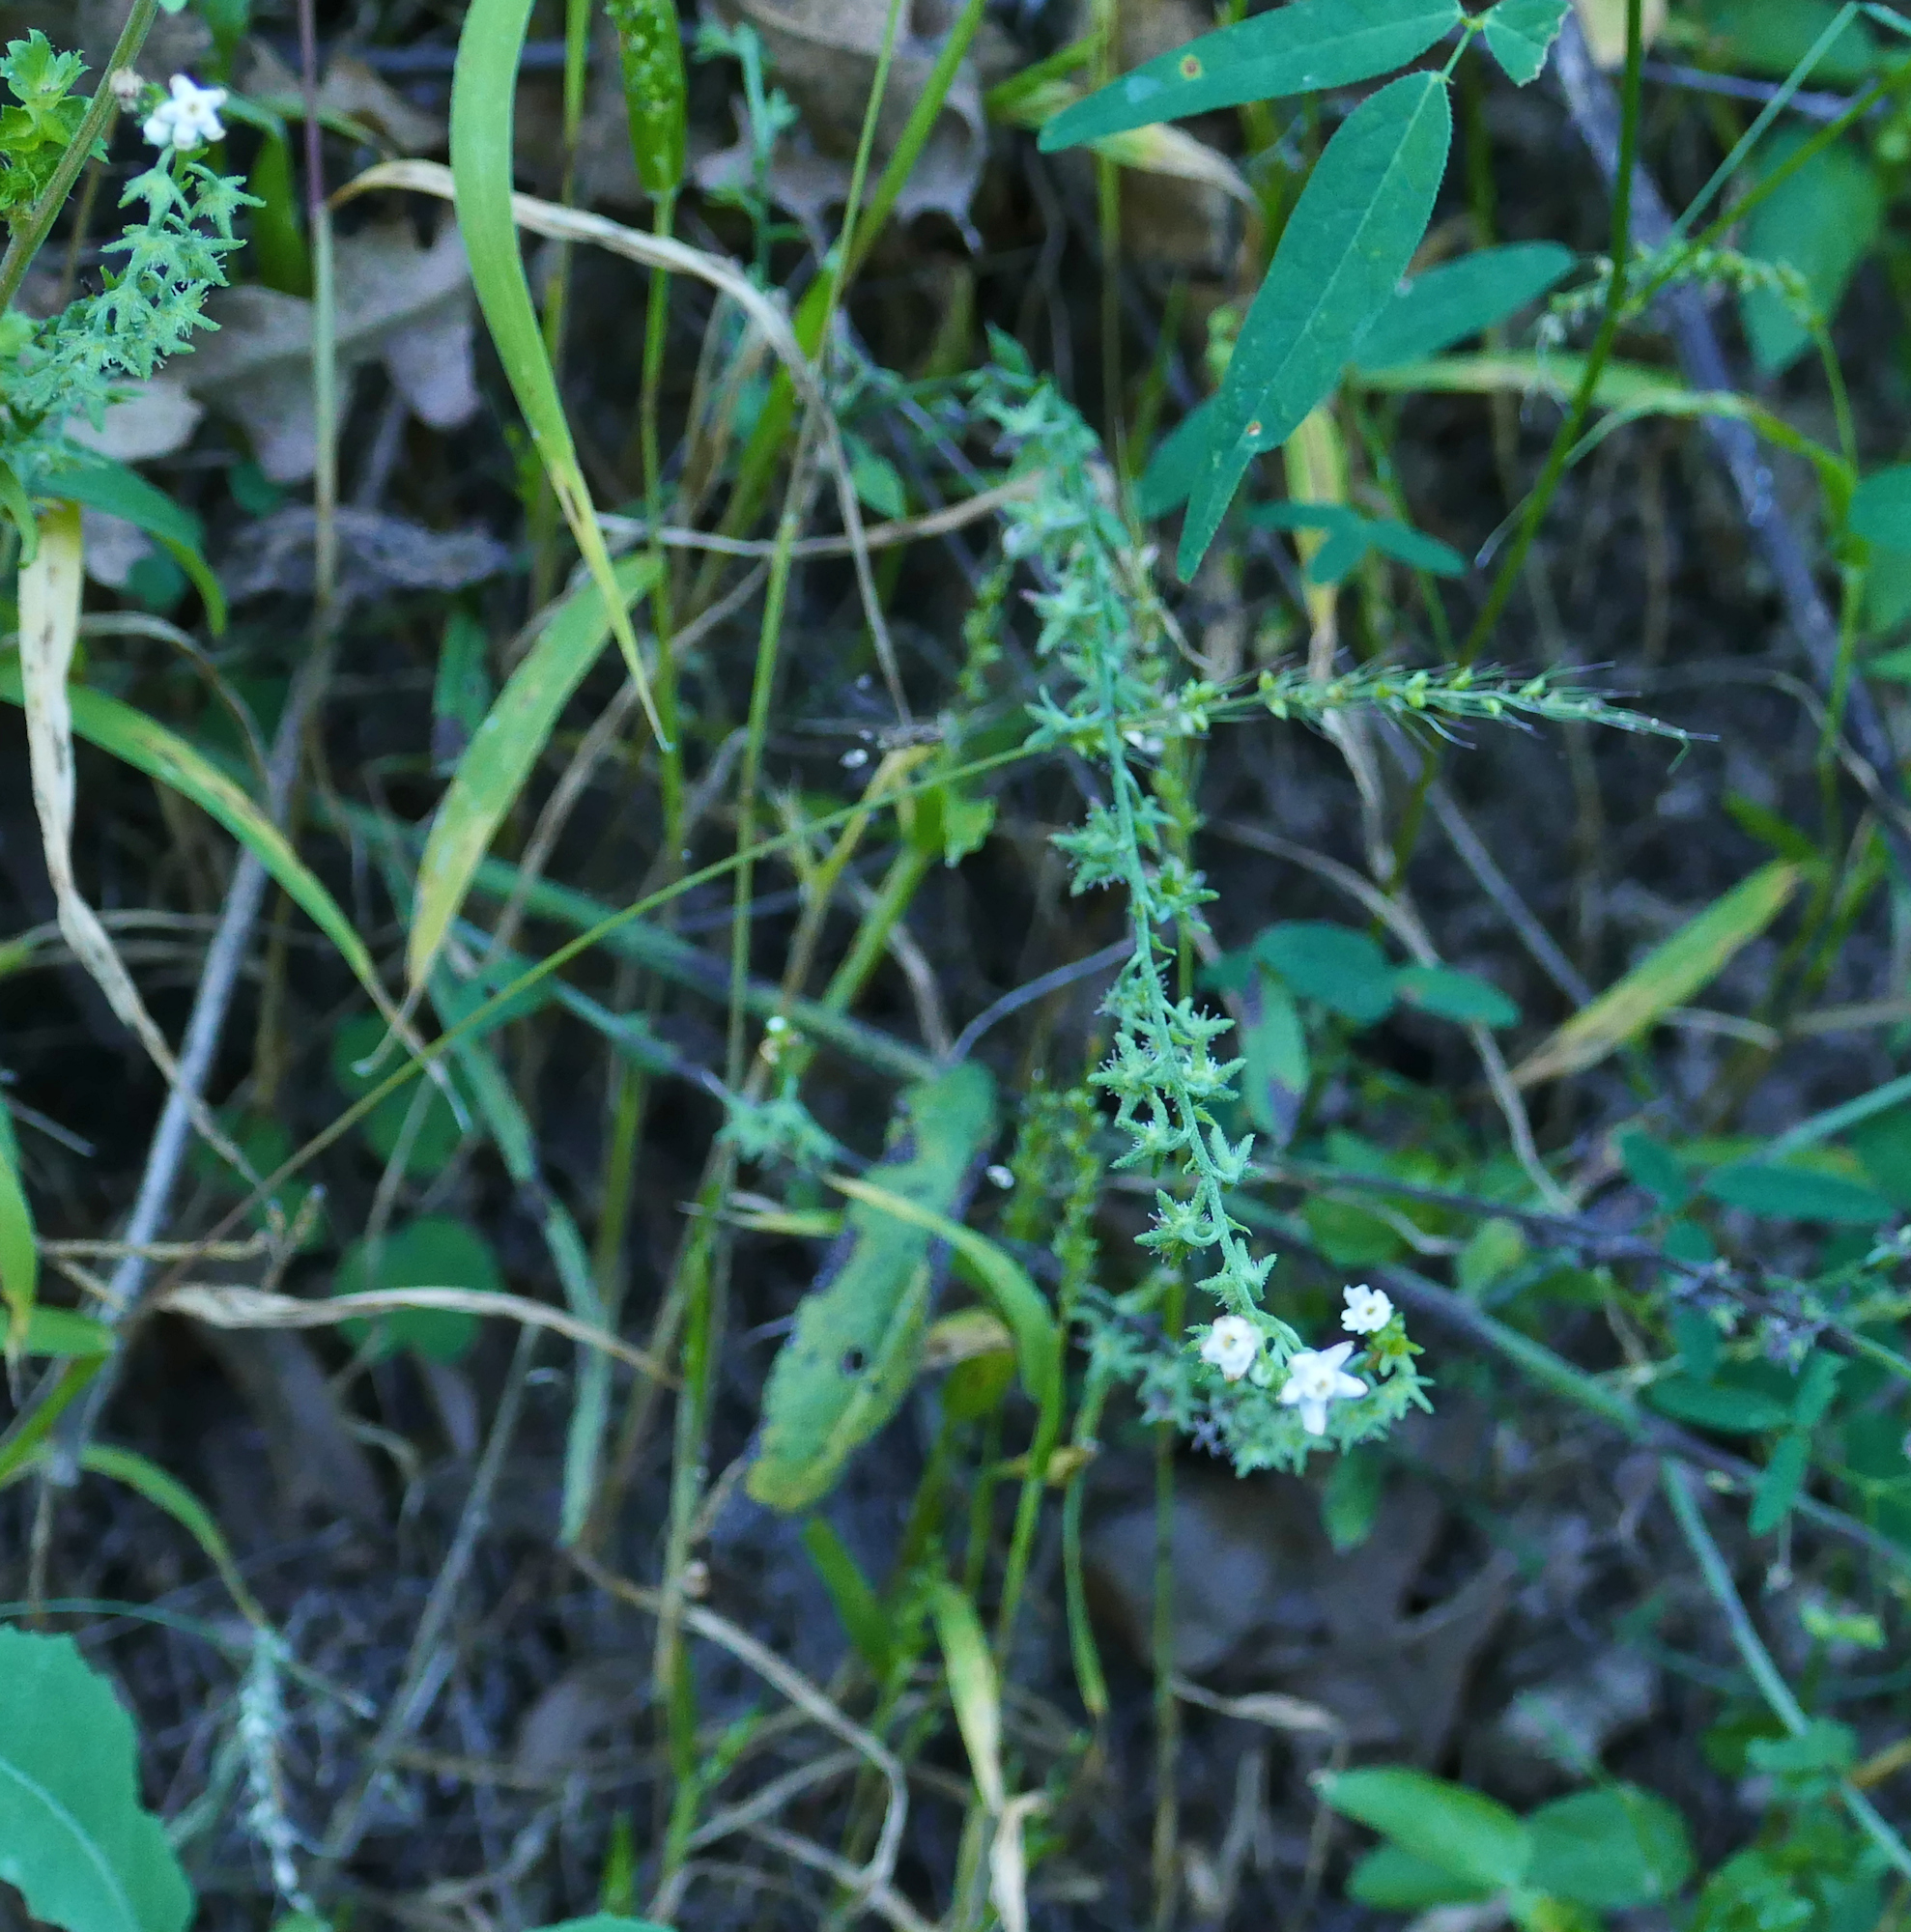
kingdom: Plantae
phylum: Tracheophyta
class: Magnoliopsida
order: Boraginales
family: Boraginaceae
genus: Hackelia
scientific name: Hackelia ursina
